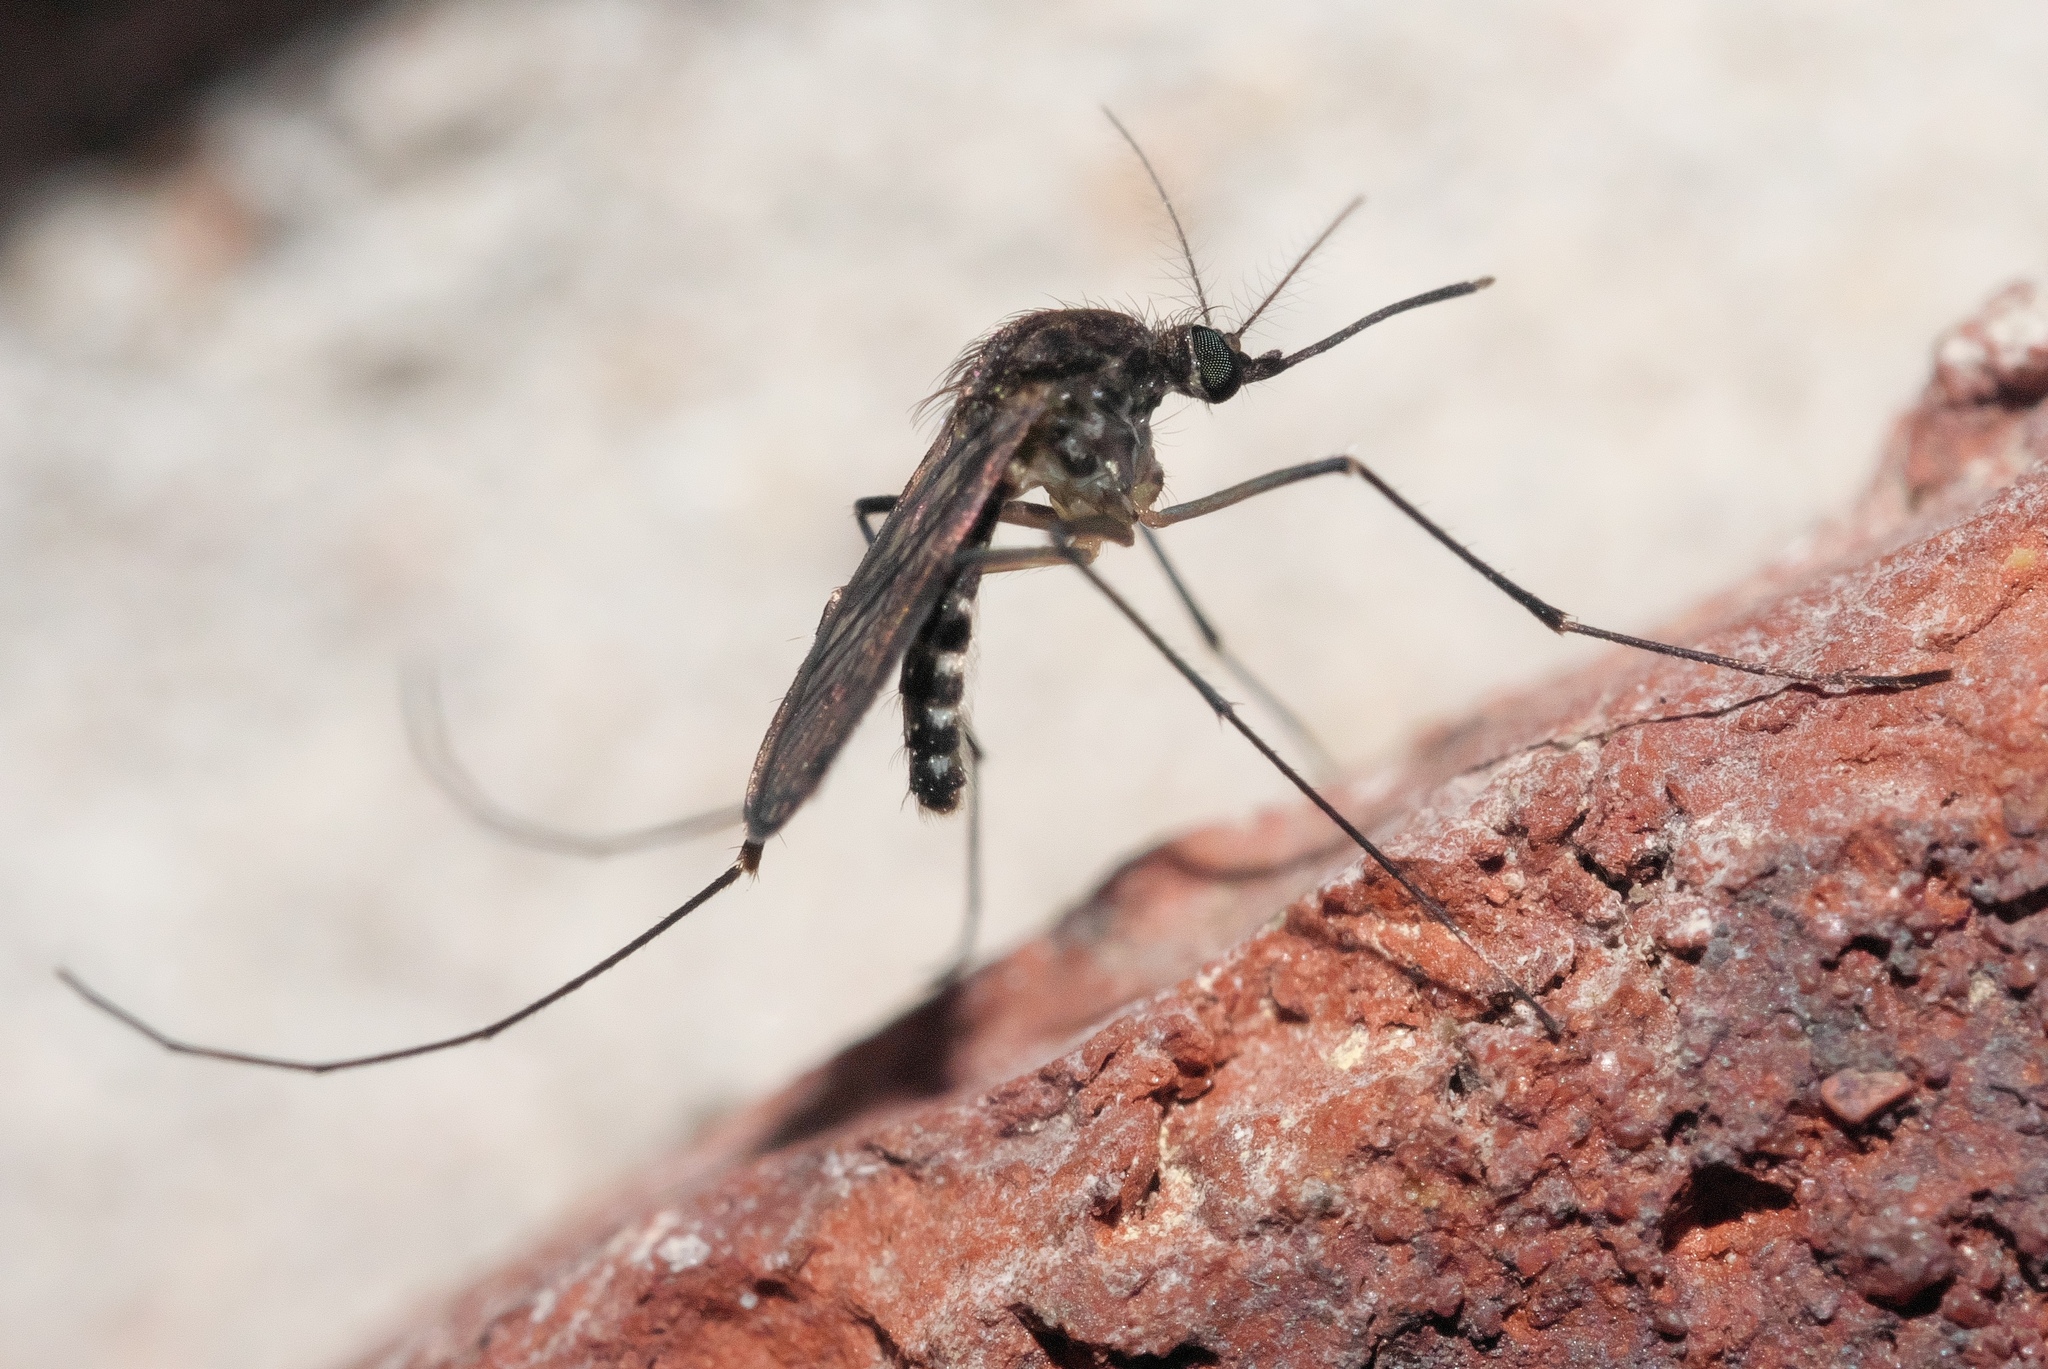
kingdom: Animalia
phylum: Arthropoda
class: Insecta
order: Diptera
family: Culicidae
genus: Culex
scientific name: Culex erraticus
